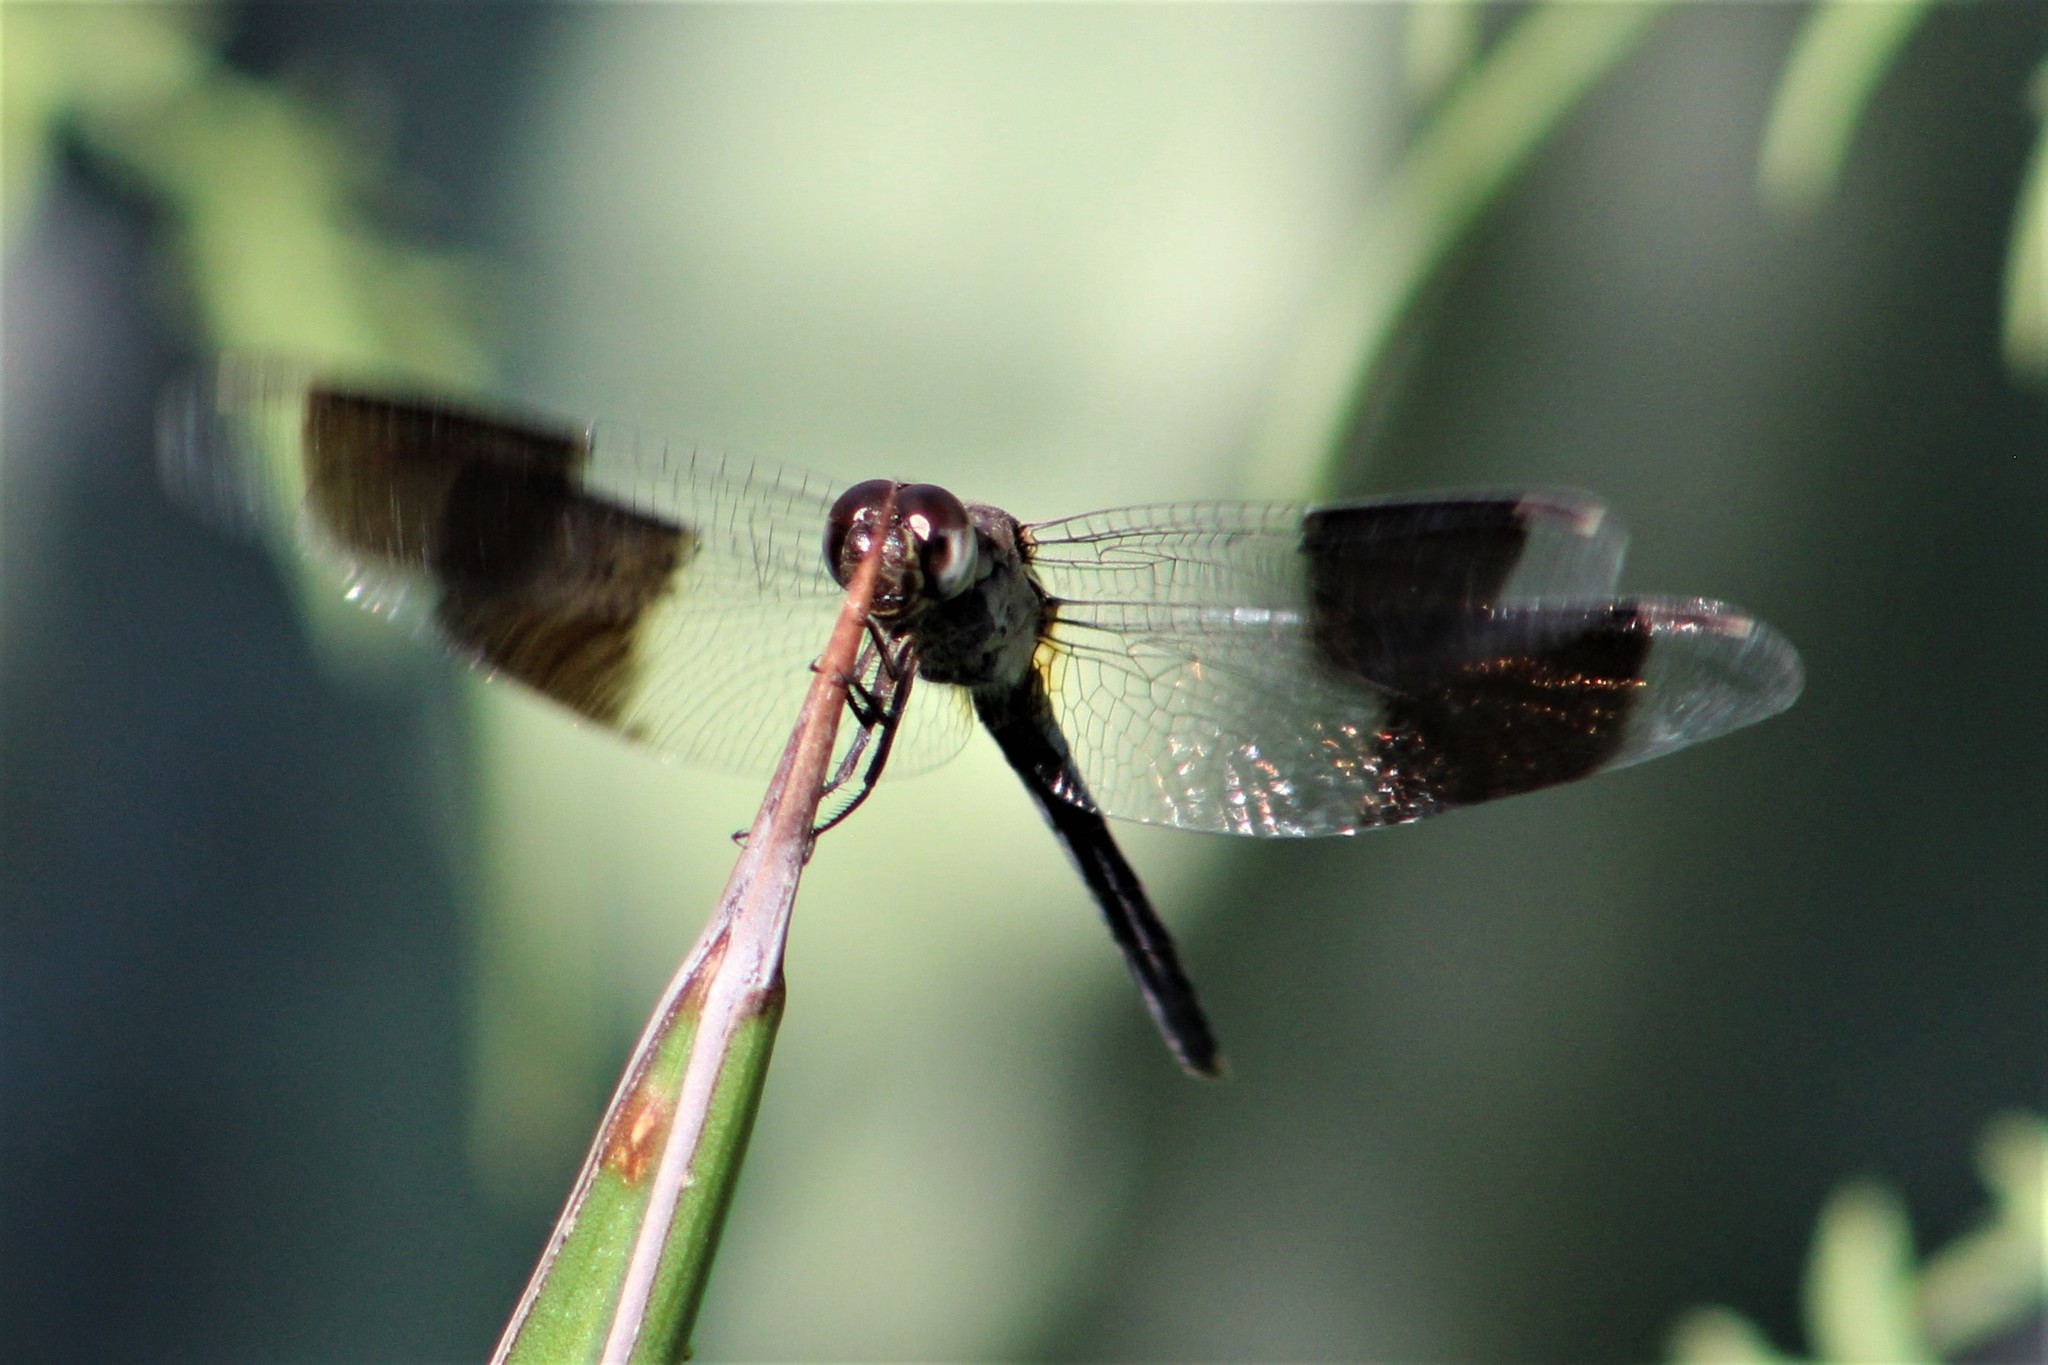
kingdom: Animalia
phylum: Arthropoda
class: Insecta
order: Odonata
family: Libellulidae
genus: Erythrodiplax
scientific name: Erythrodiplax umbrata
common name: Band-winged dragonlet
